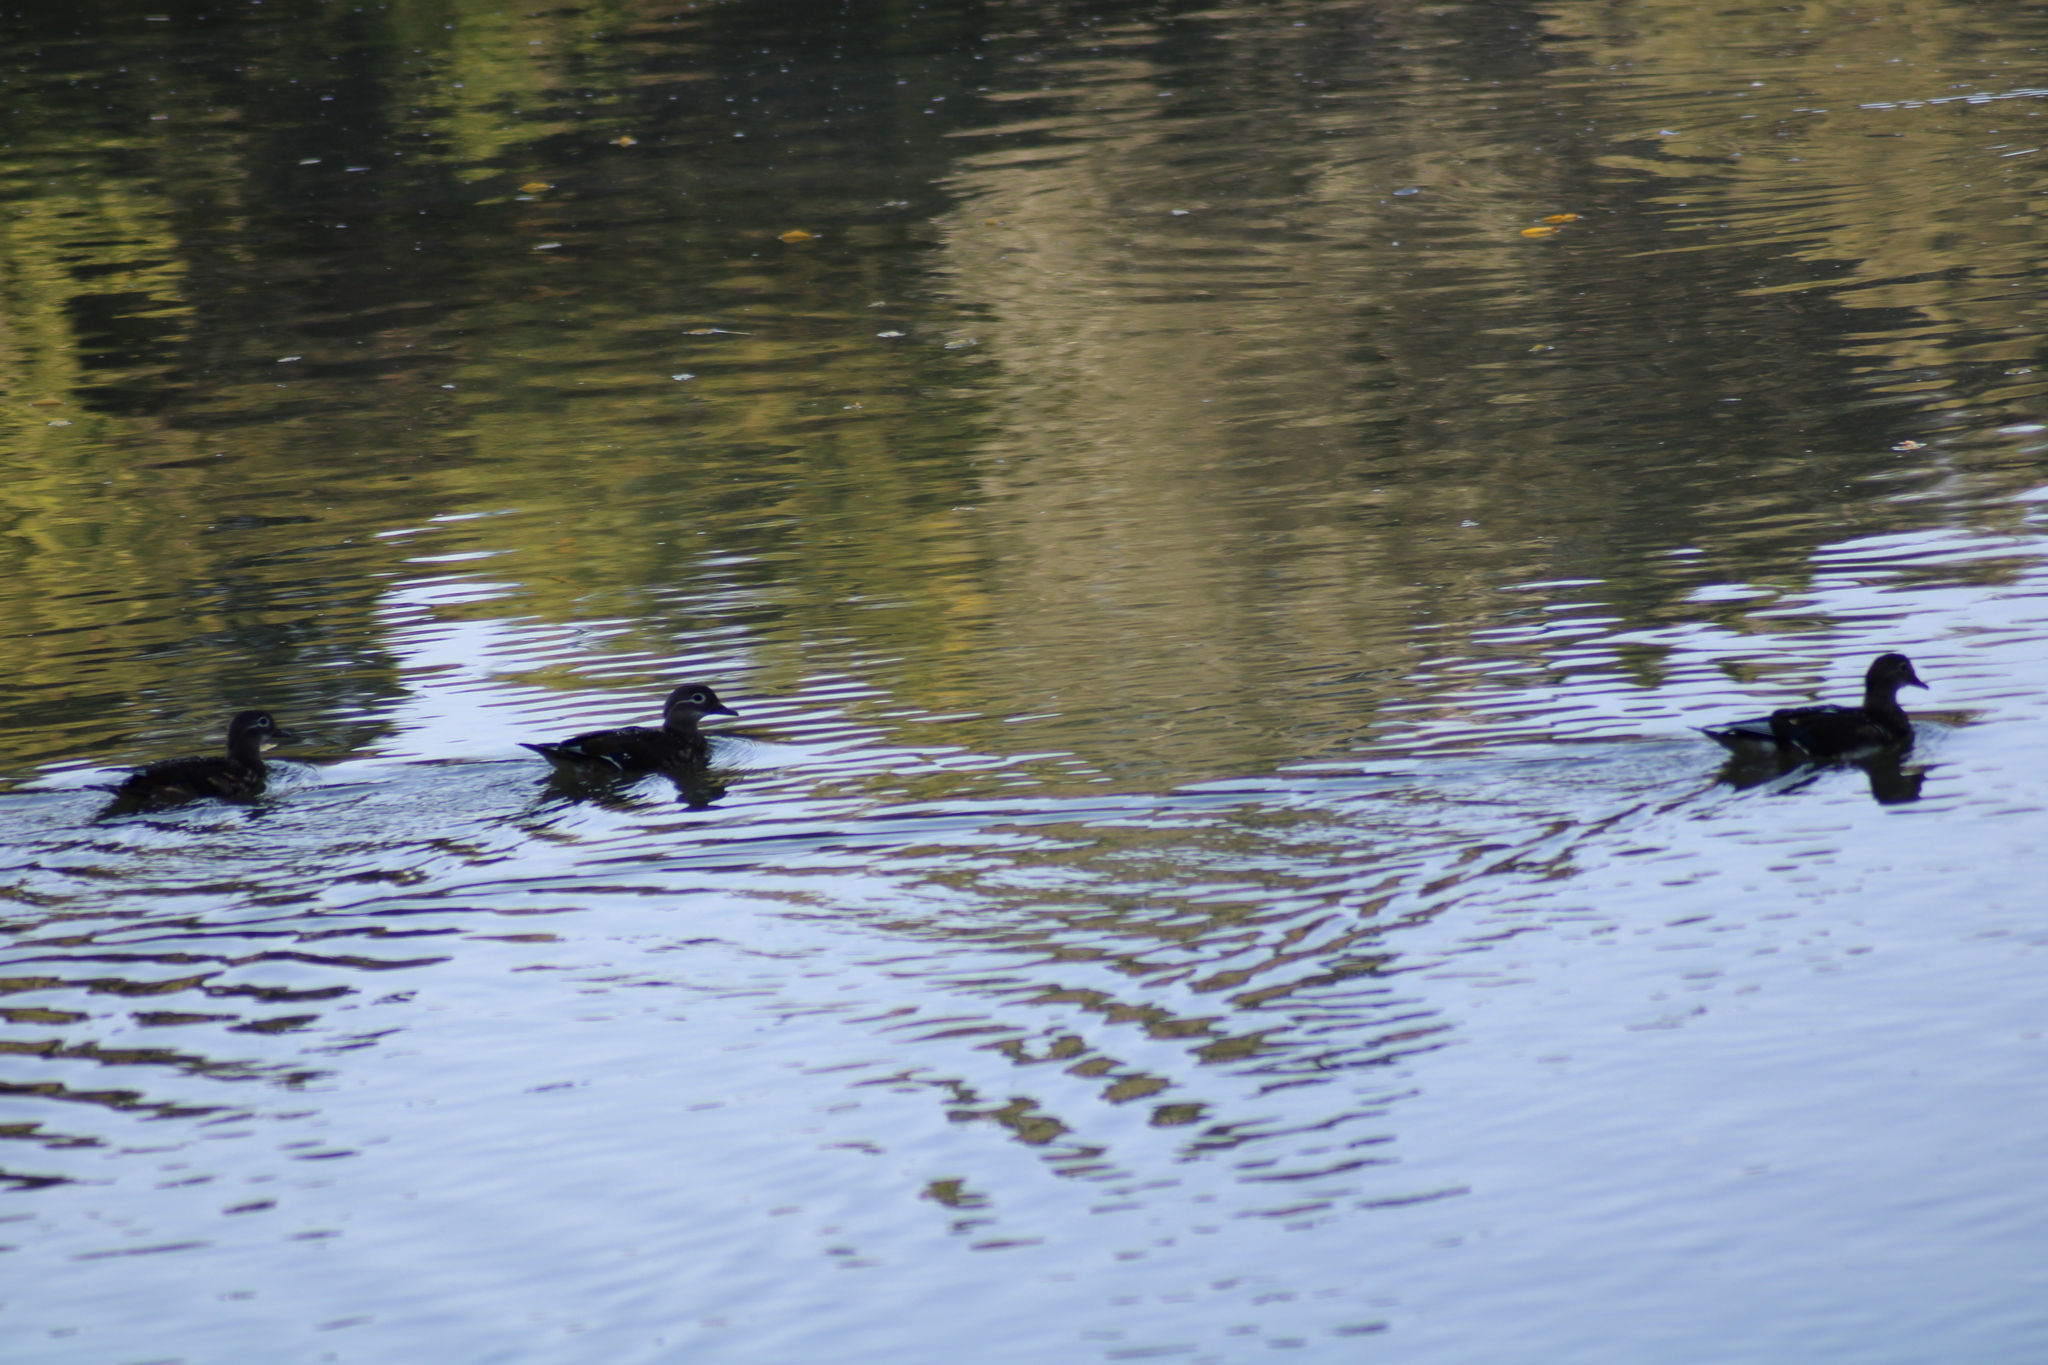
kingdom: Animalia
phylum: Chordata
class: Aves
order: Anseriformes
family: Anatidae
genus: Aix
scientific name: Aix galericulata
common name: Mandarin duck
